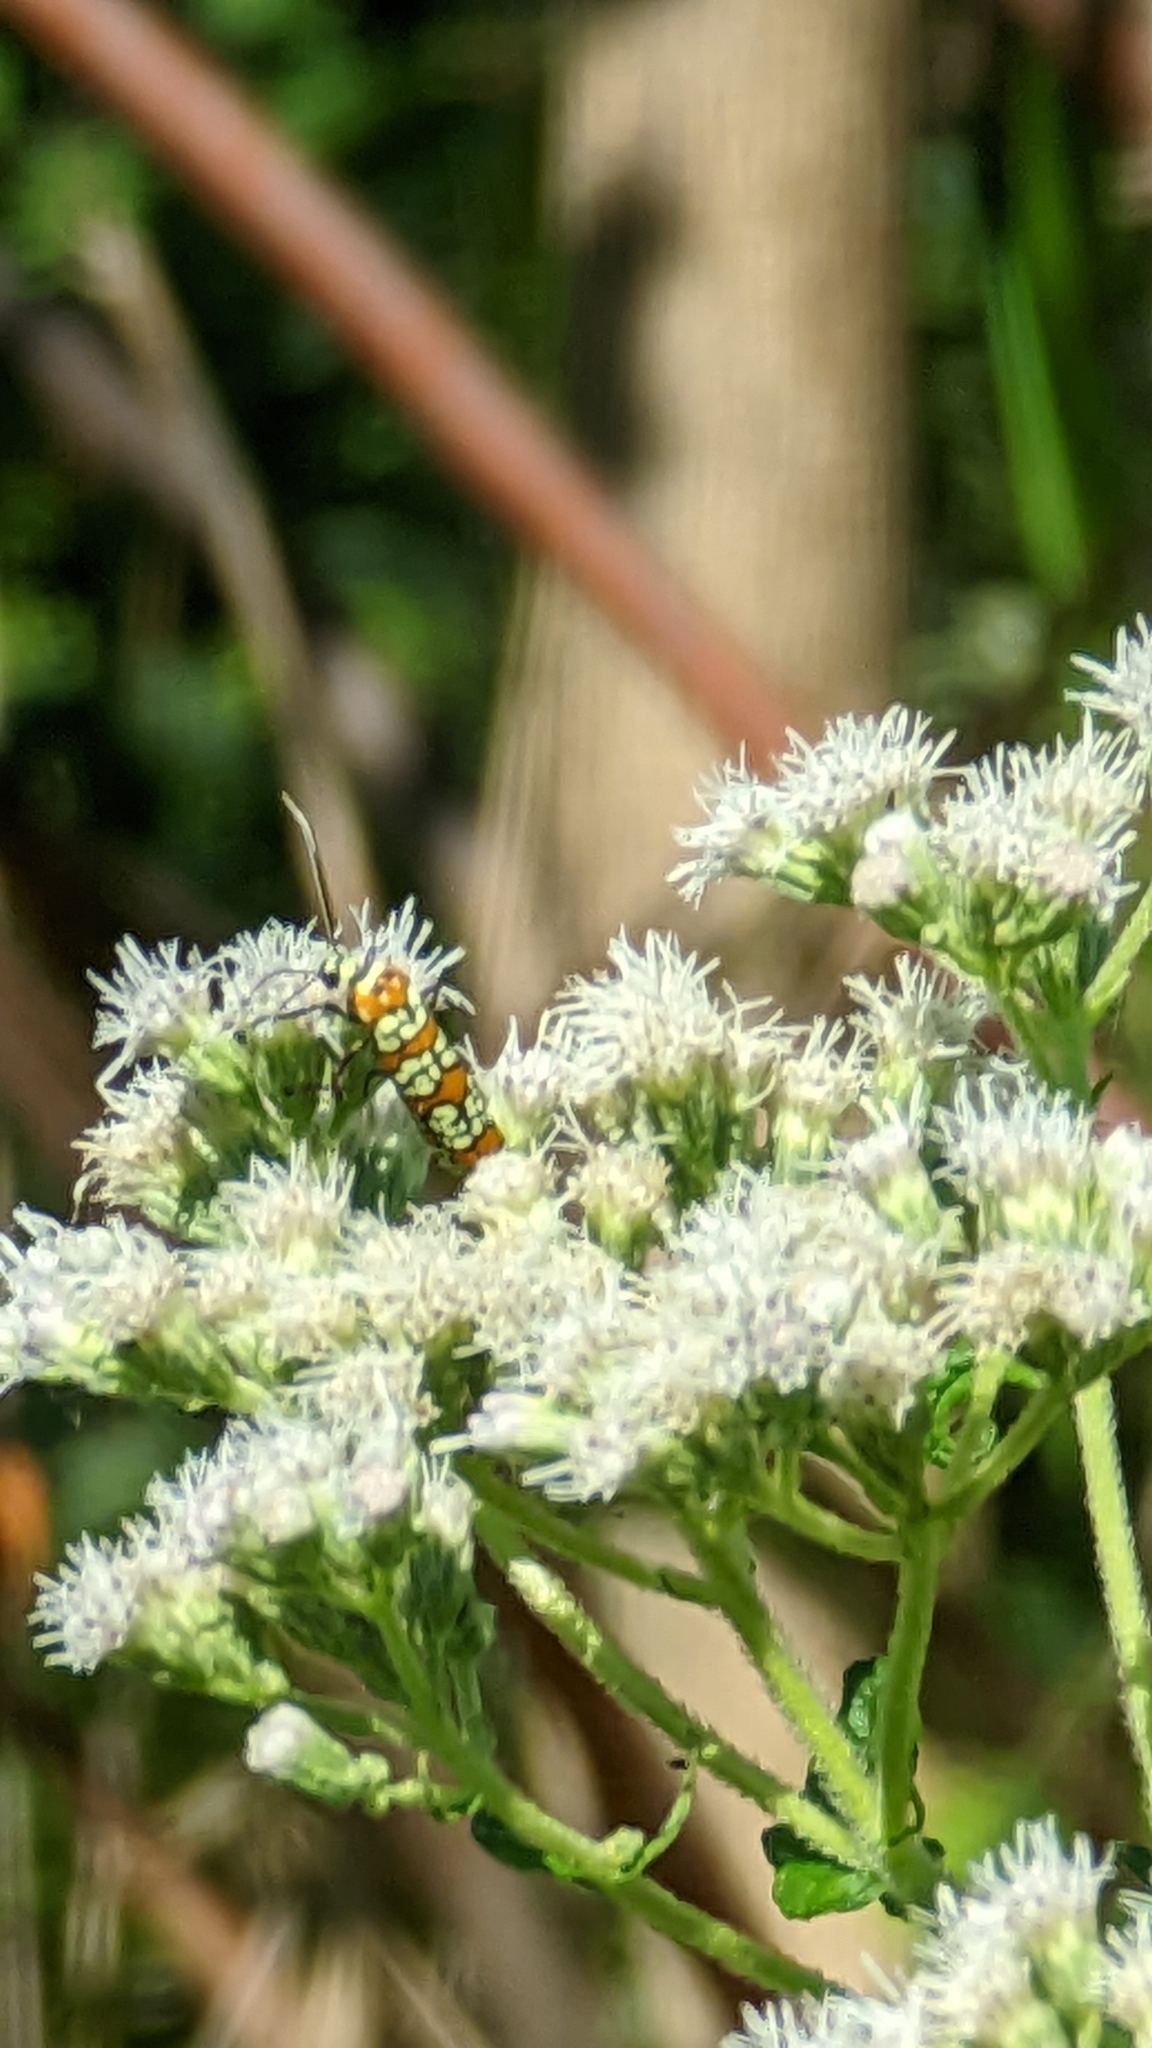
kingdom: Animalia
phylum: Arthropoda
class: Insecta
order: Lepidoptera
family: Attevidae
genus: Atteva
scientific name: Atteva punctella
